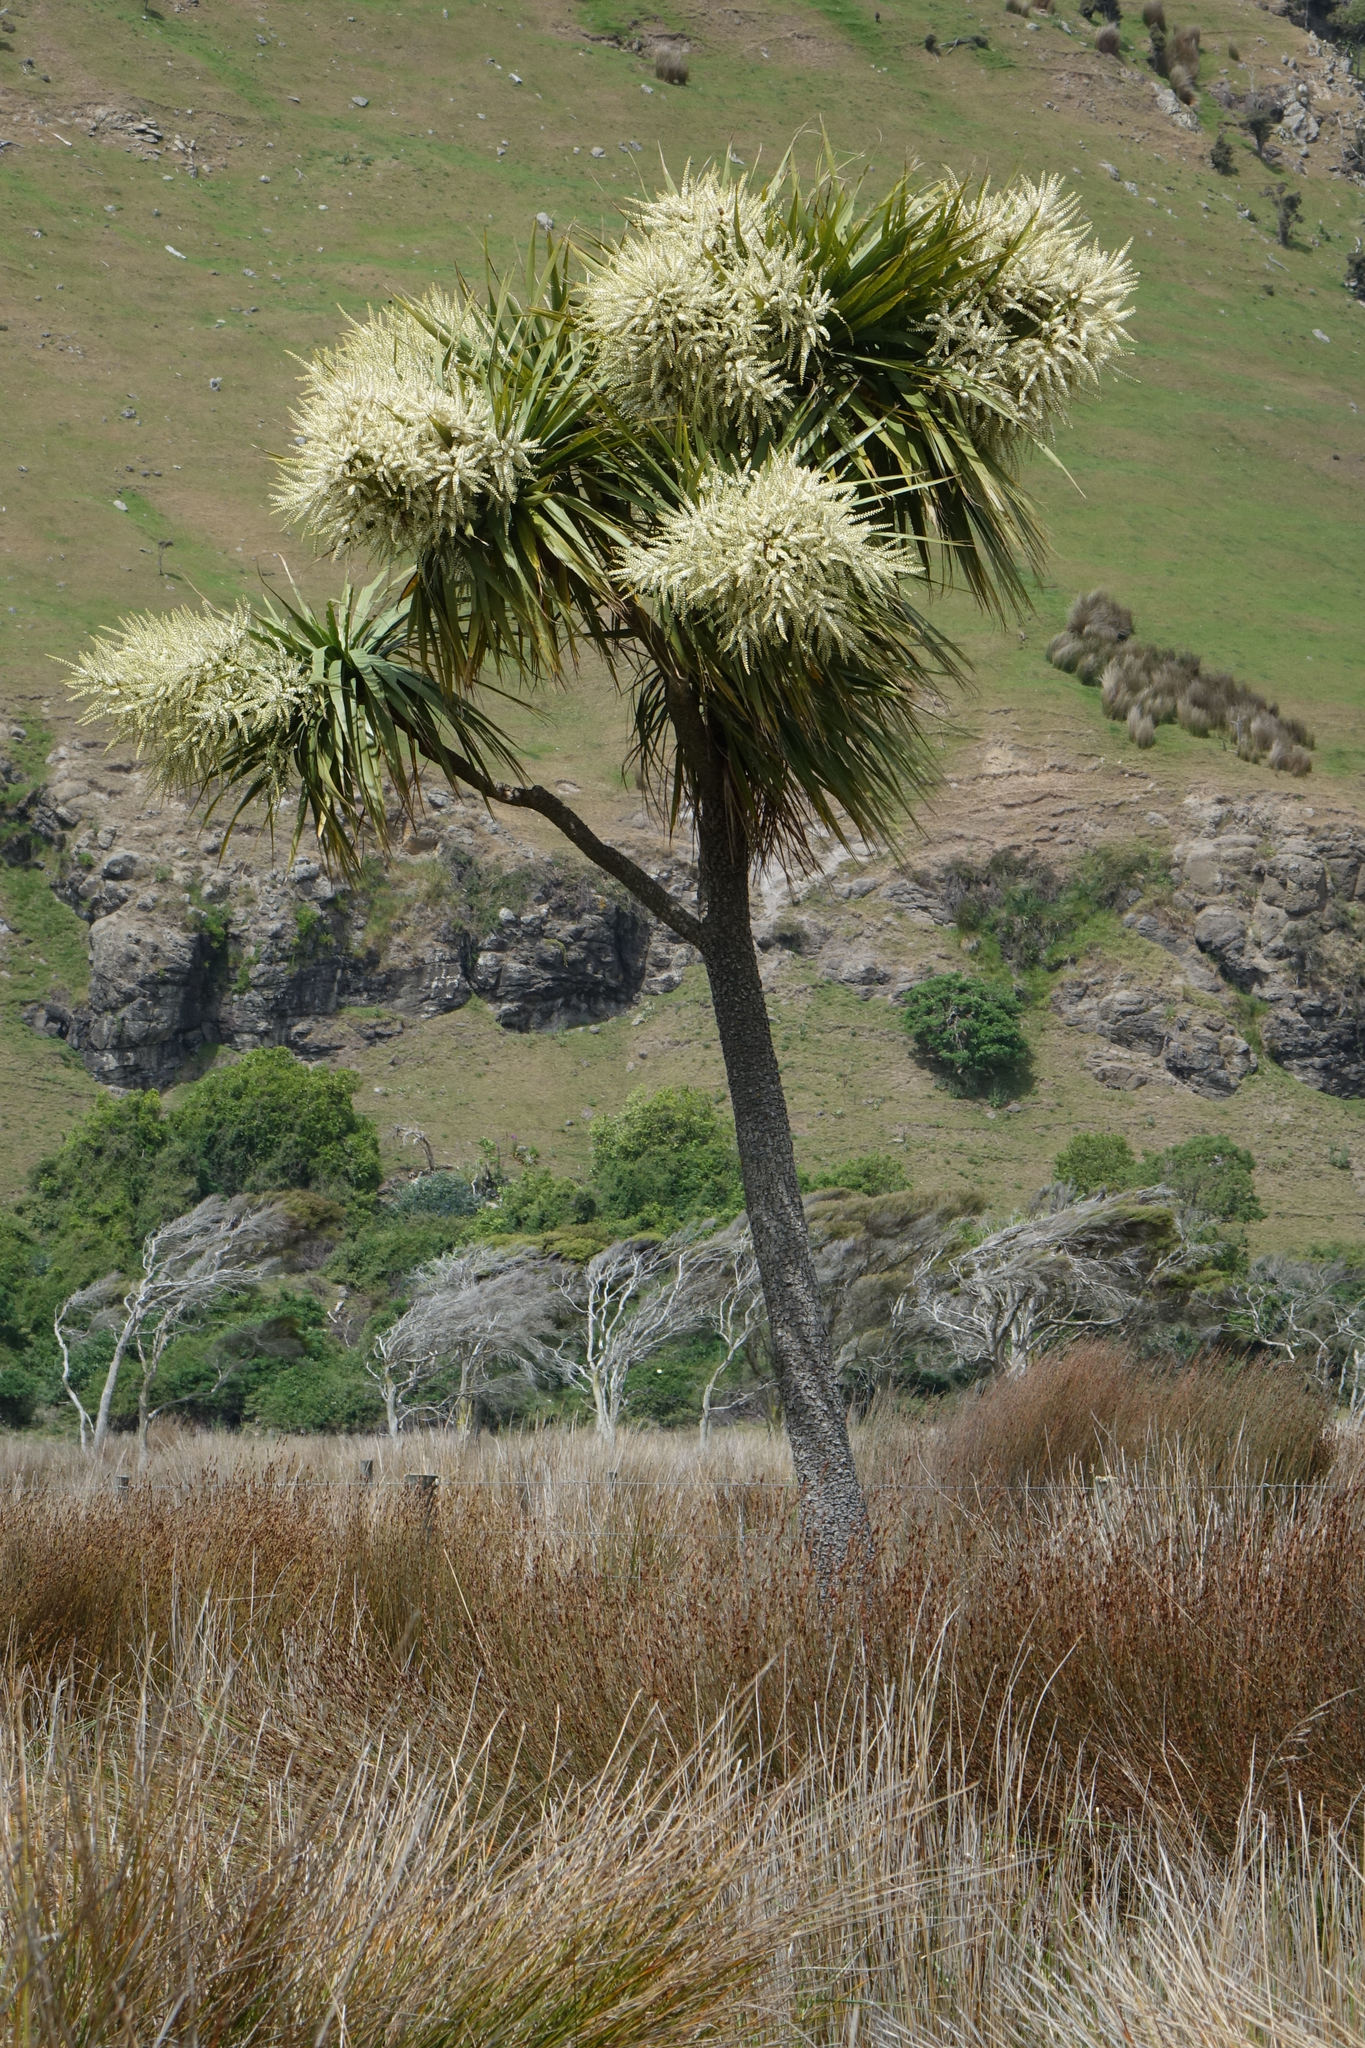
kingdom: Plantae
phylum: Tracheophyta
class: Liliopsida
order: Asparagales
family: Asparagaceae
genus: Cordyline
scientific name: Cordyline australis
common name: Cabbage-palm
